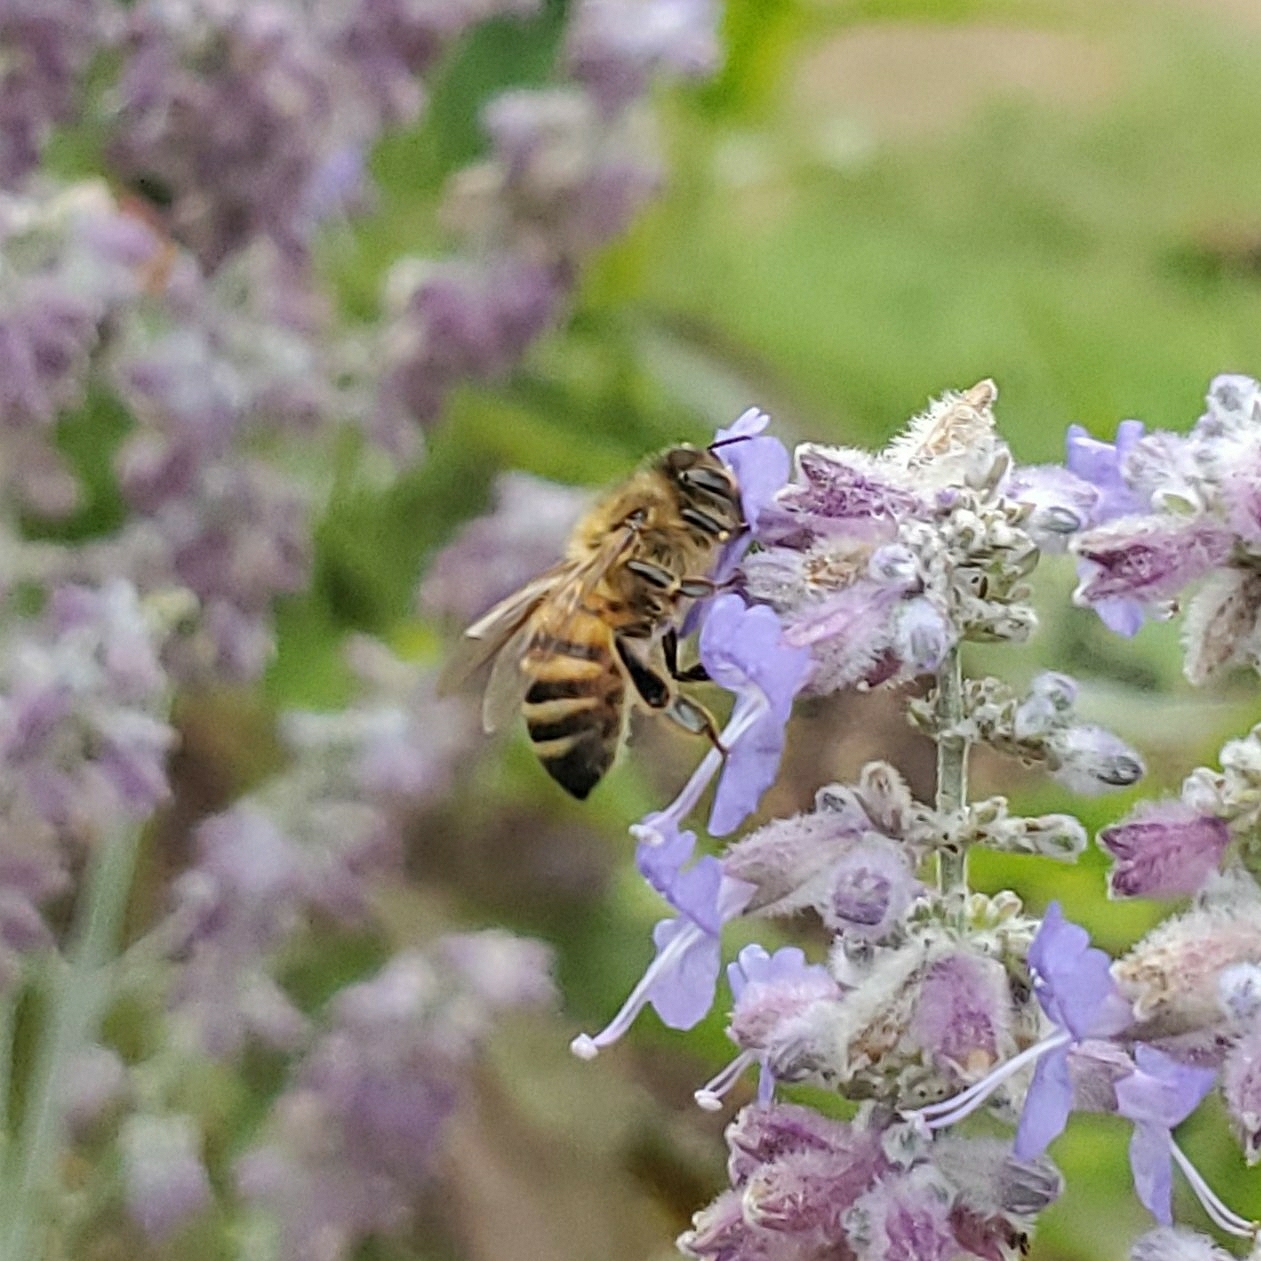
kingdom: Animalia
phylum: Arthropoda
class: Insecta
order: Hymenoptera
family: Apidae
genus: Apis
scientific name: Apis mellifera
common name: Honey bee
